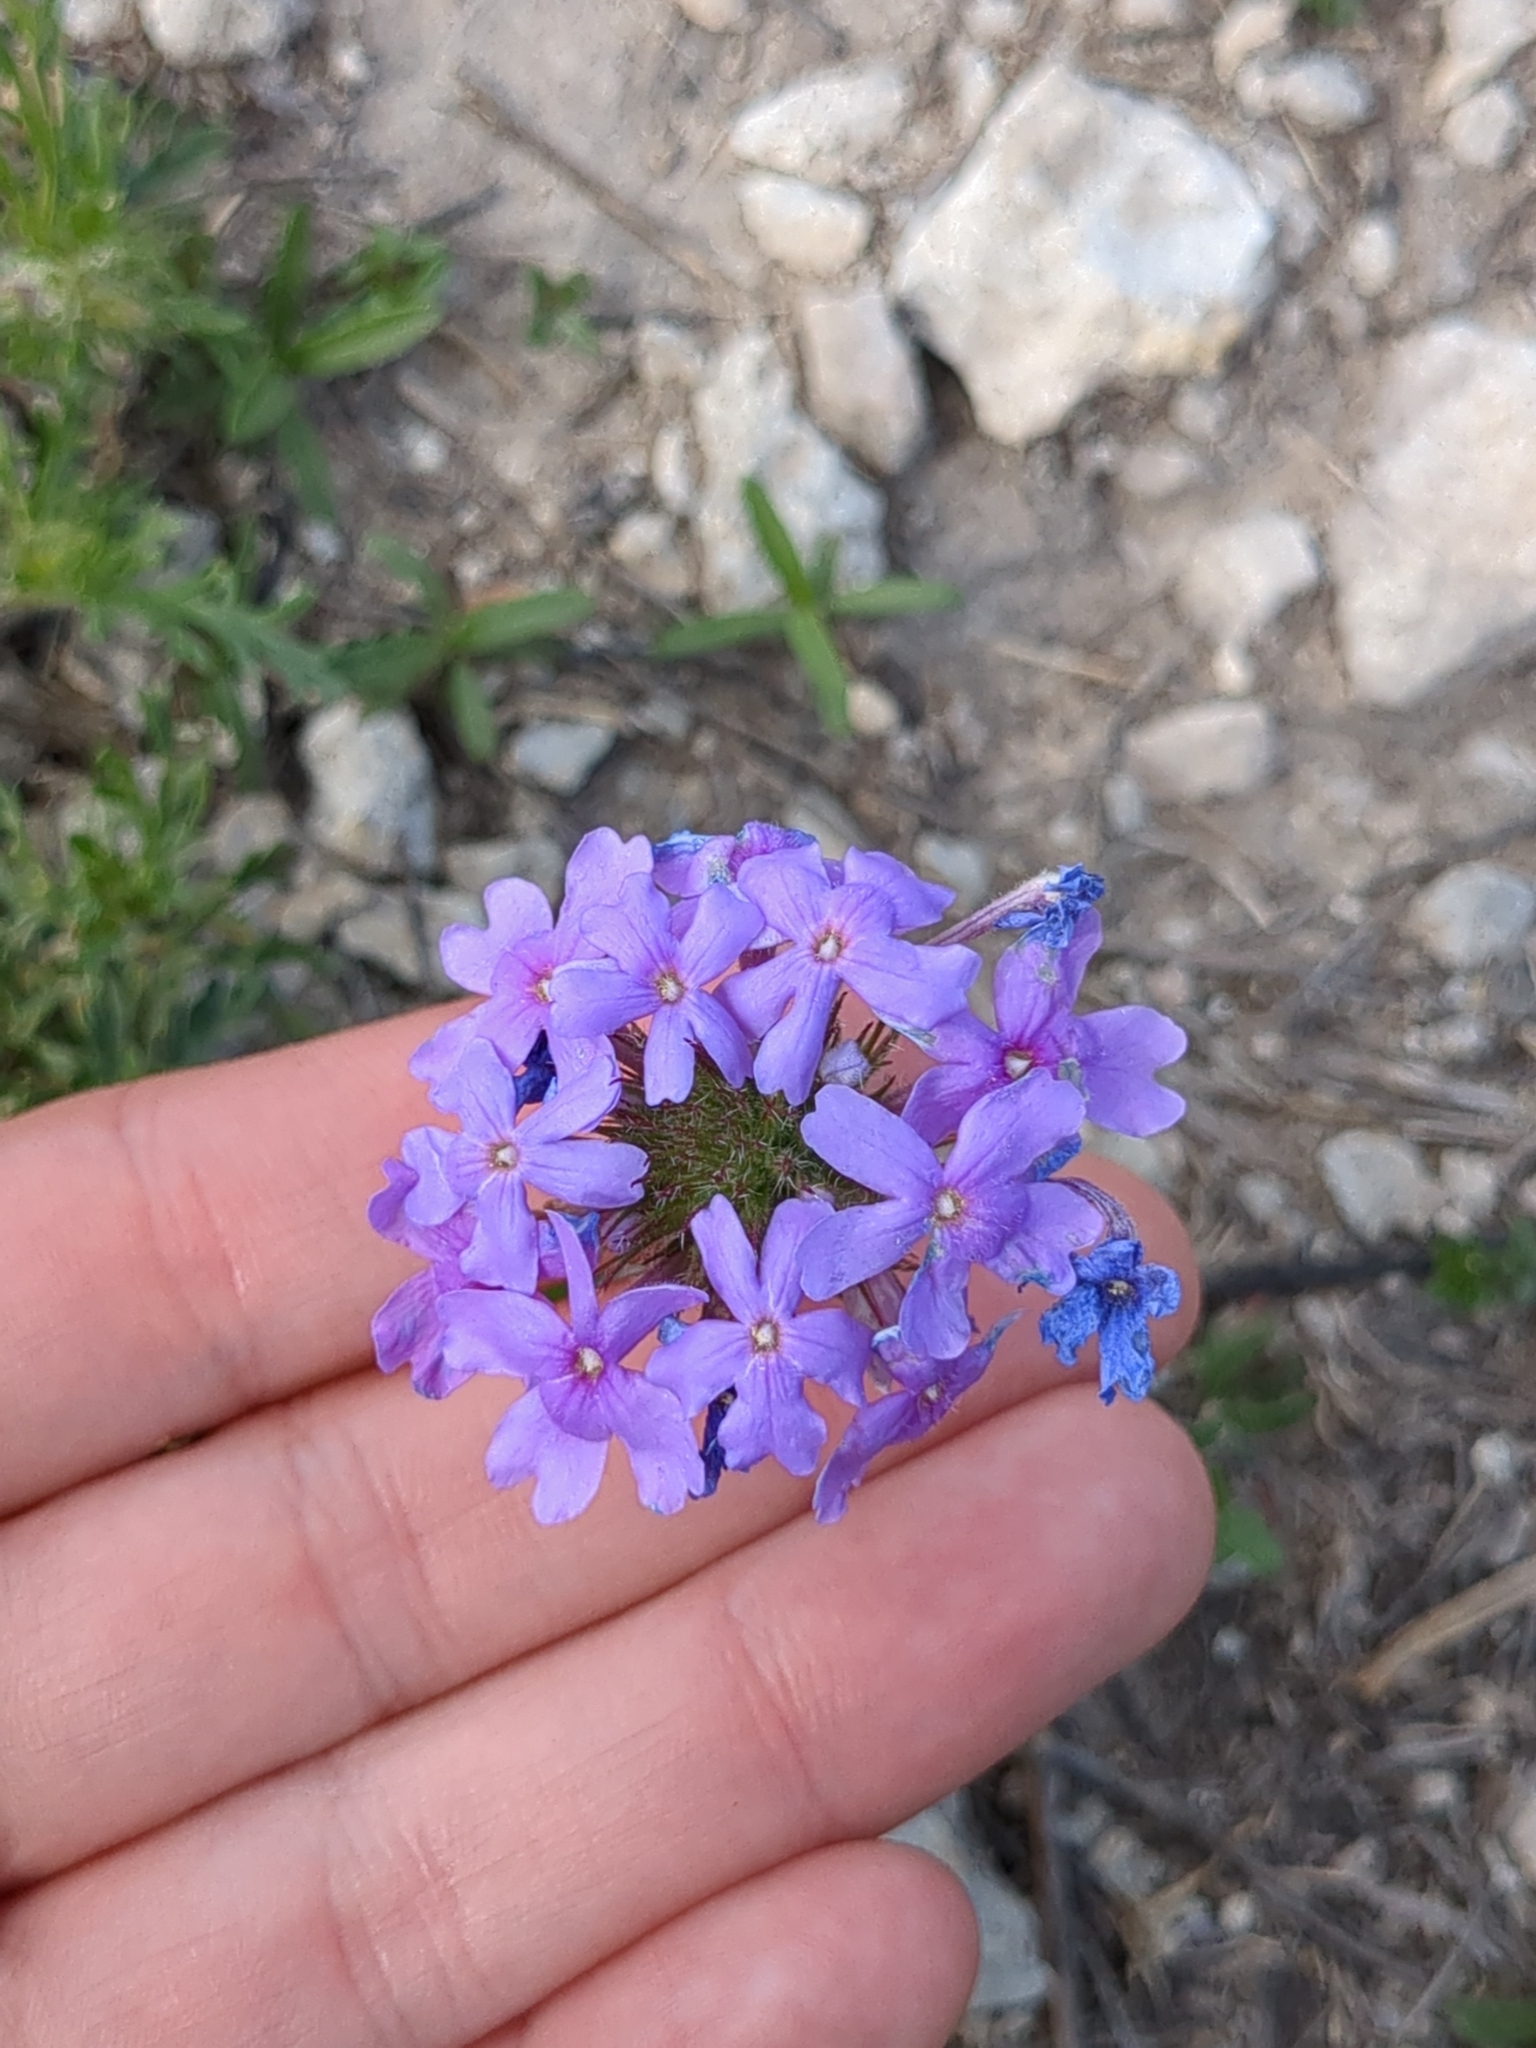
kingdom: Plantae
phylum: Tracheophyta
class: Magnoliopsida
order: Lamiales
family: Verbenaceae
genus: Verbena
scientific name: Verbena bipinnatifida
